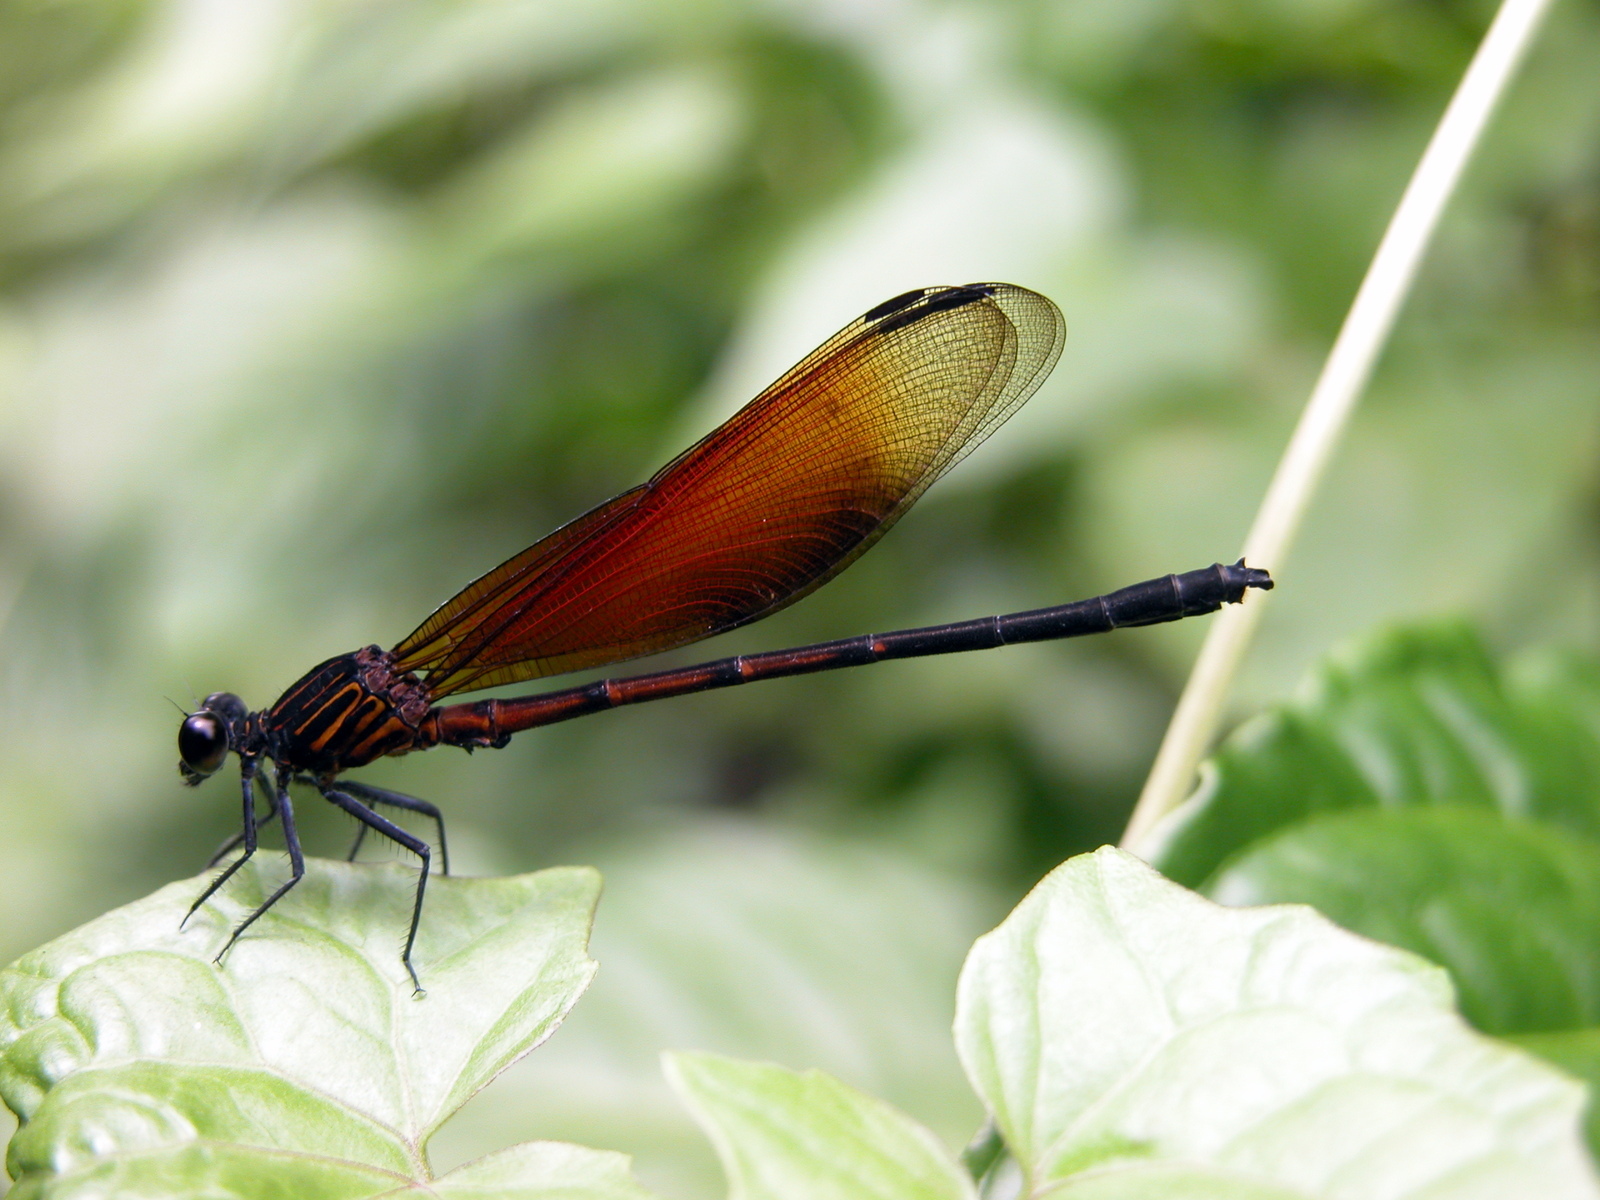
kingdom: Animalia
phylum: Arthropoda
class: Insecta
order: Odonata
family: Euphaeidae
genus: Euphaea
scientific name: Euphaea ochracea
